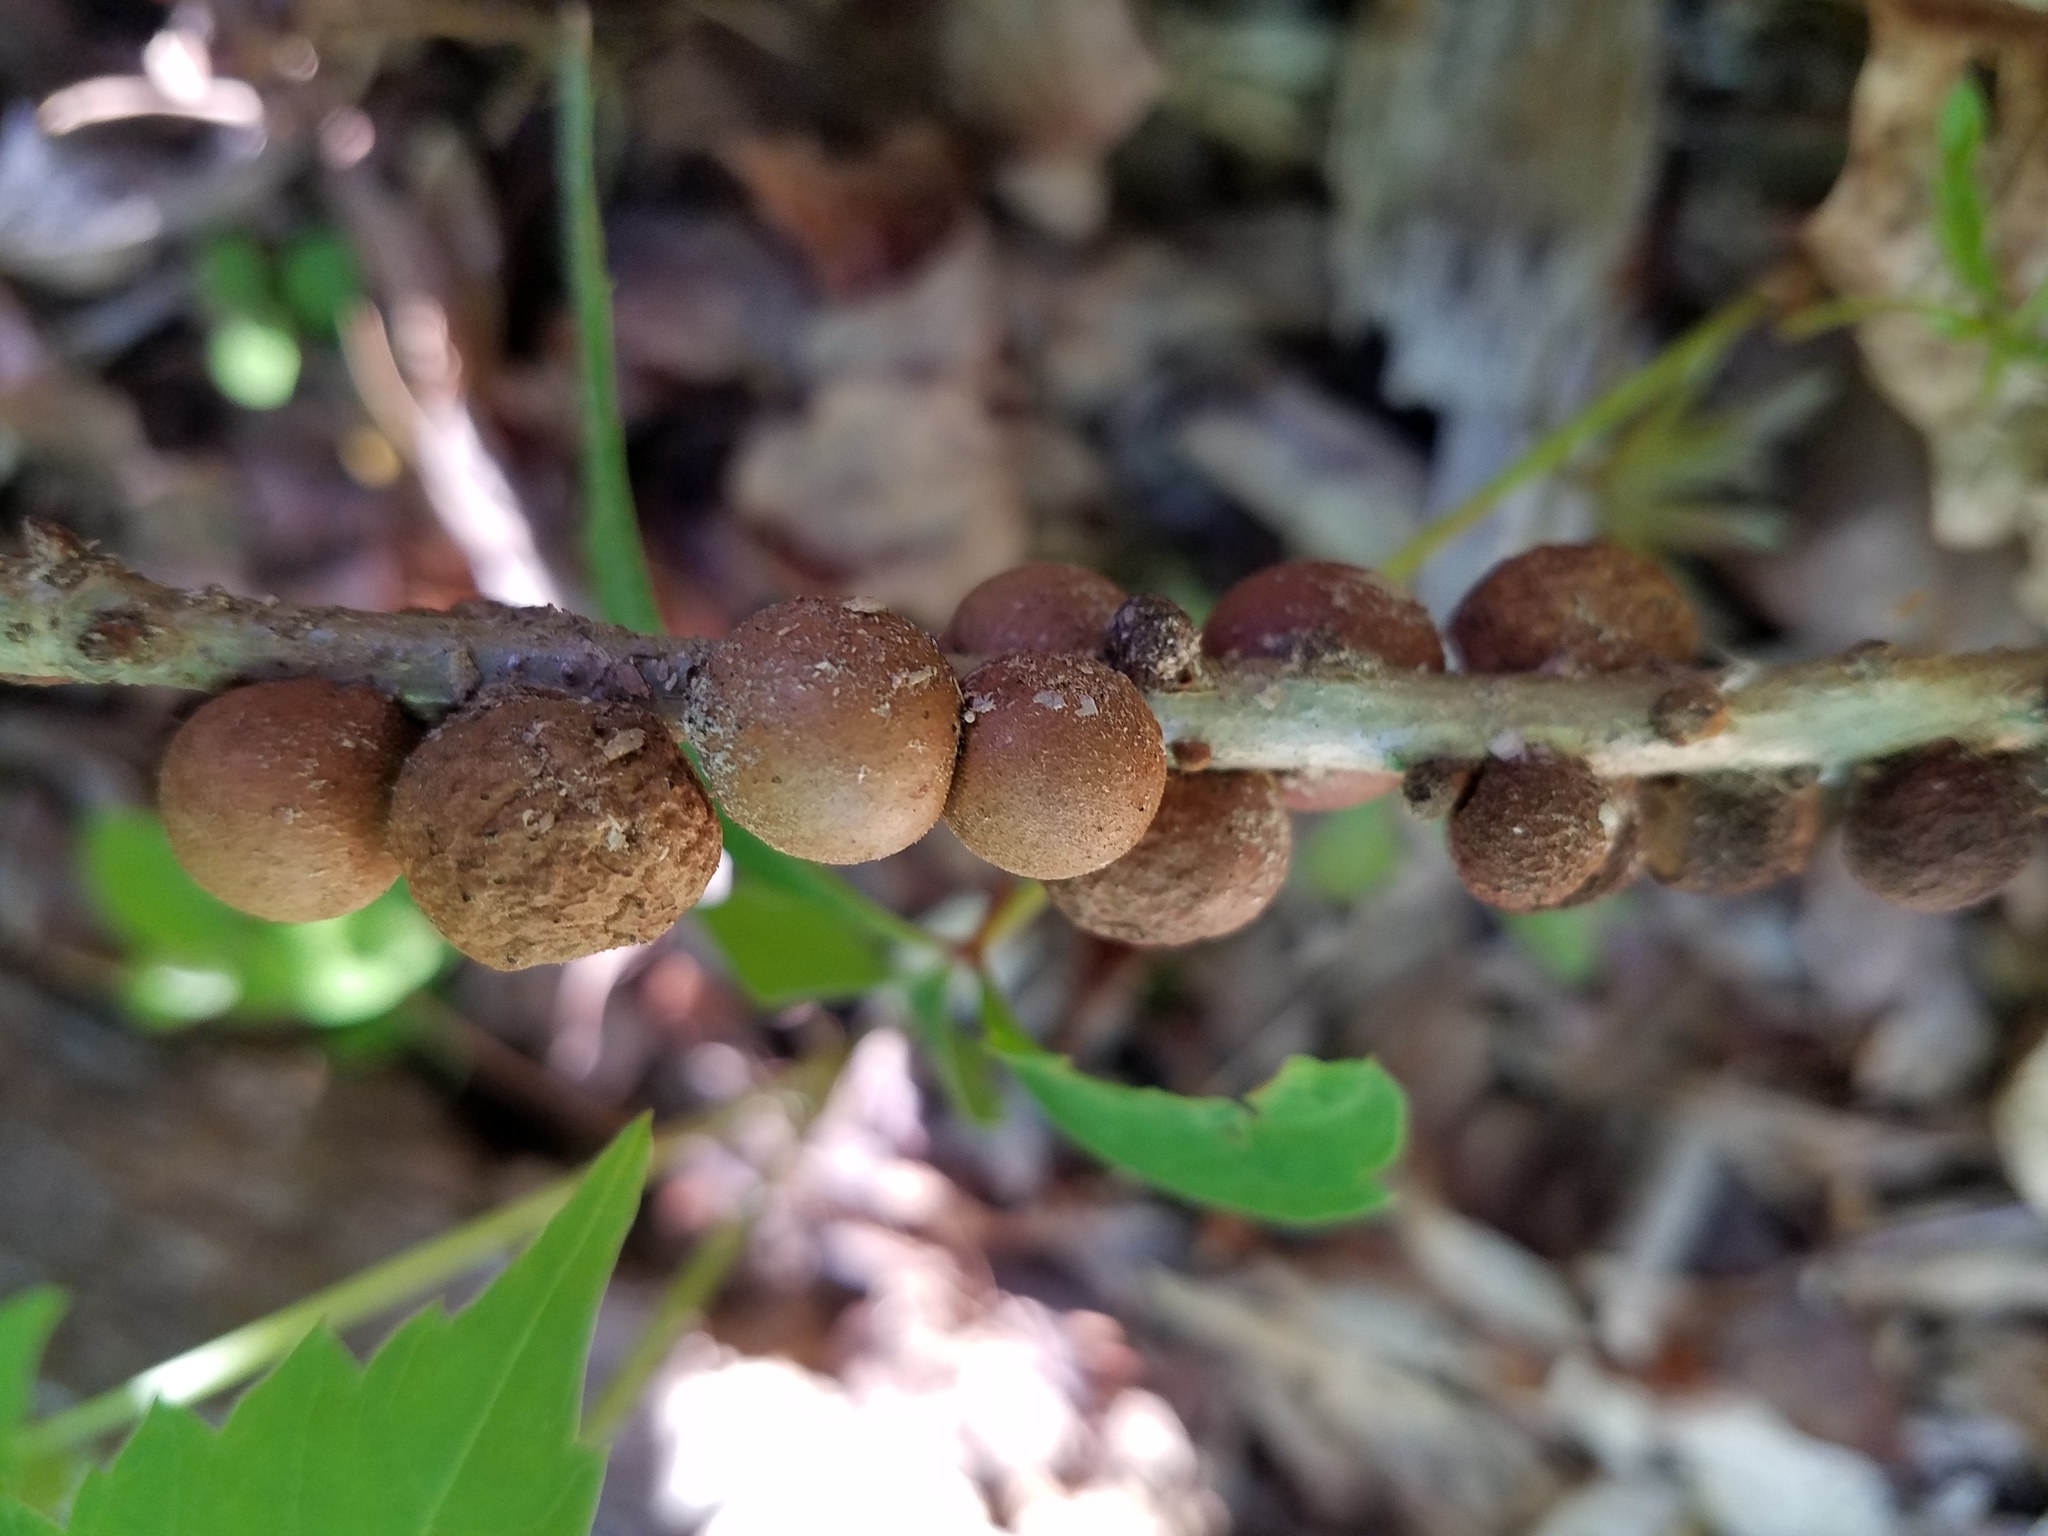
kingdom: Animalia
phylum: Arthropoda
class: Insecta
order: Hymenoptera
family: Cynipidae
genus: Disholcaspis
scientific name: Disholcaspis
